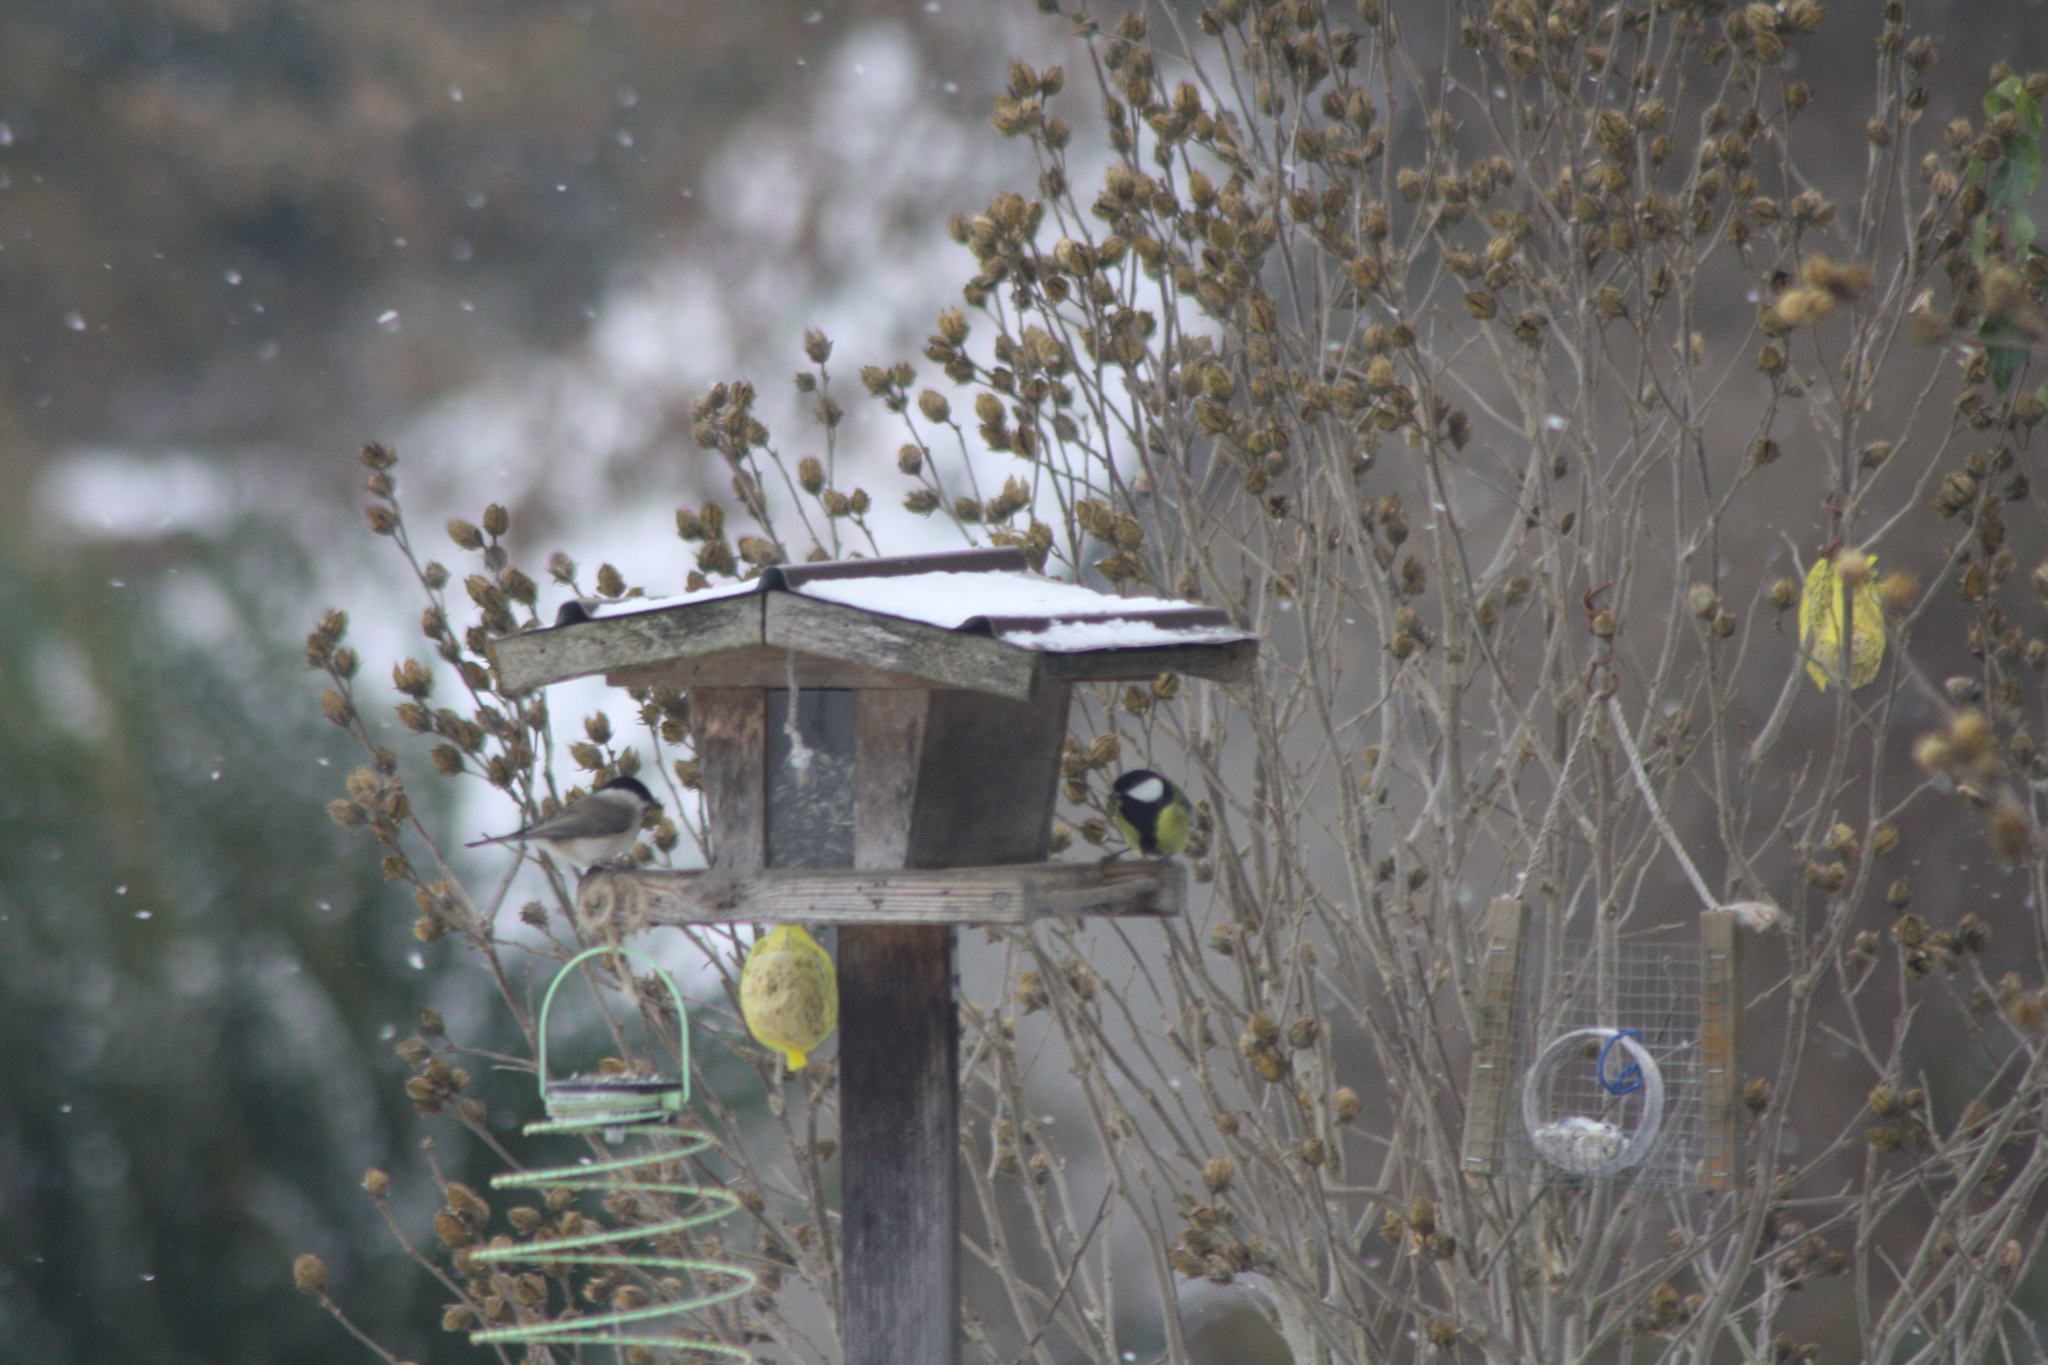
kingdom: Animalia
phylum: Chordata
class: Aves
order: Passeriformes
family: Paridae
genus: Poecile
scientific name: Poecile palustris
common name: Marsh tit
